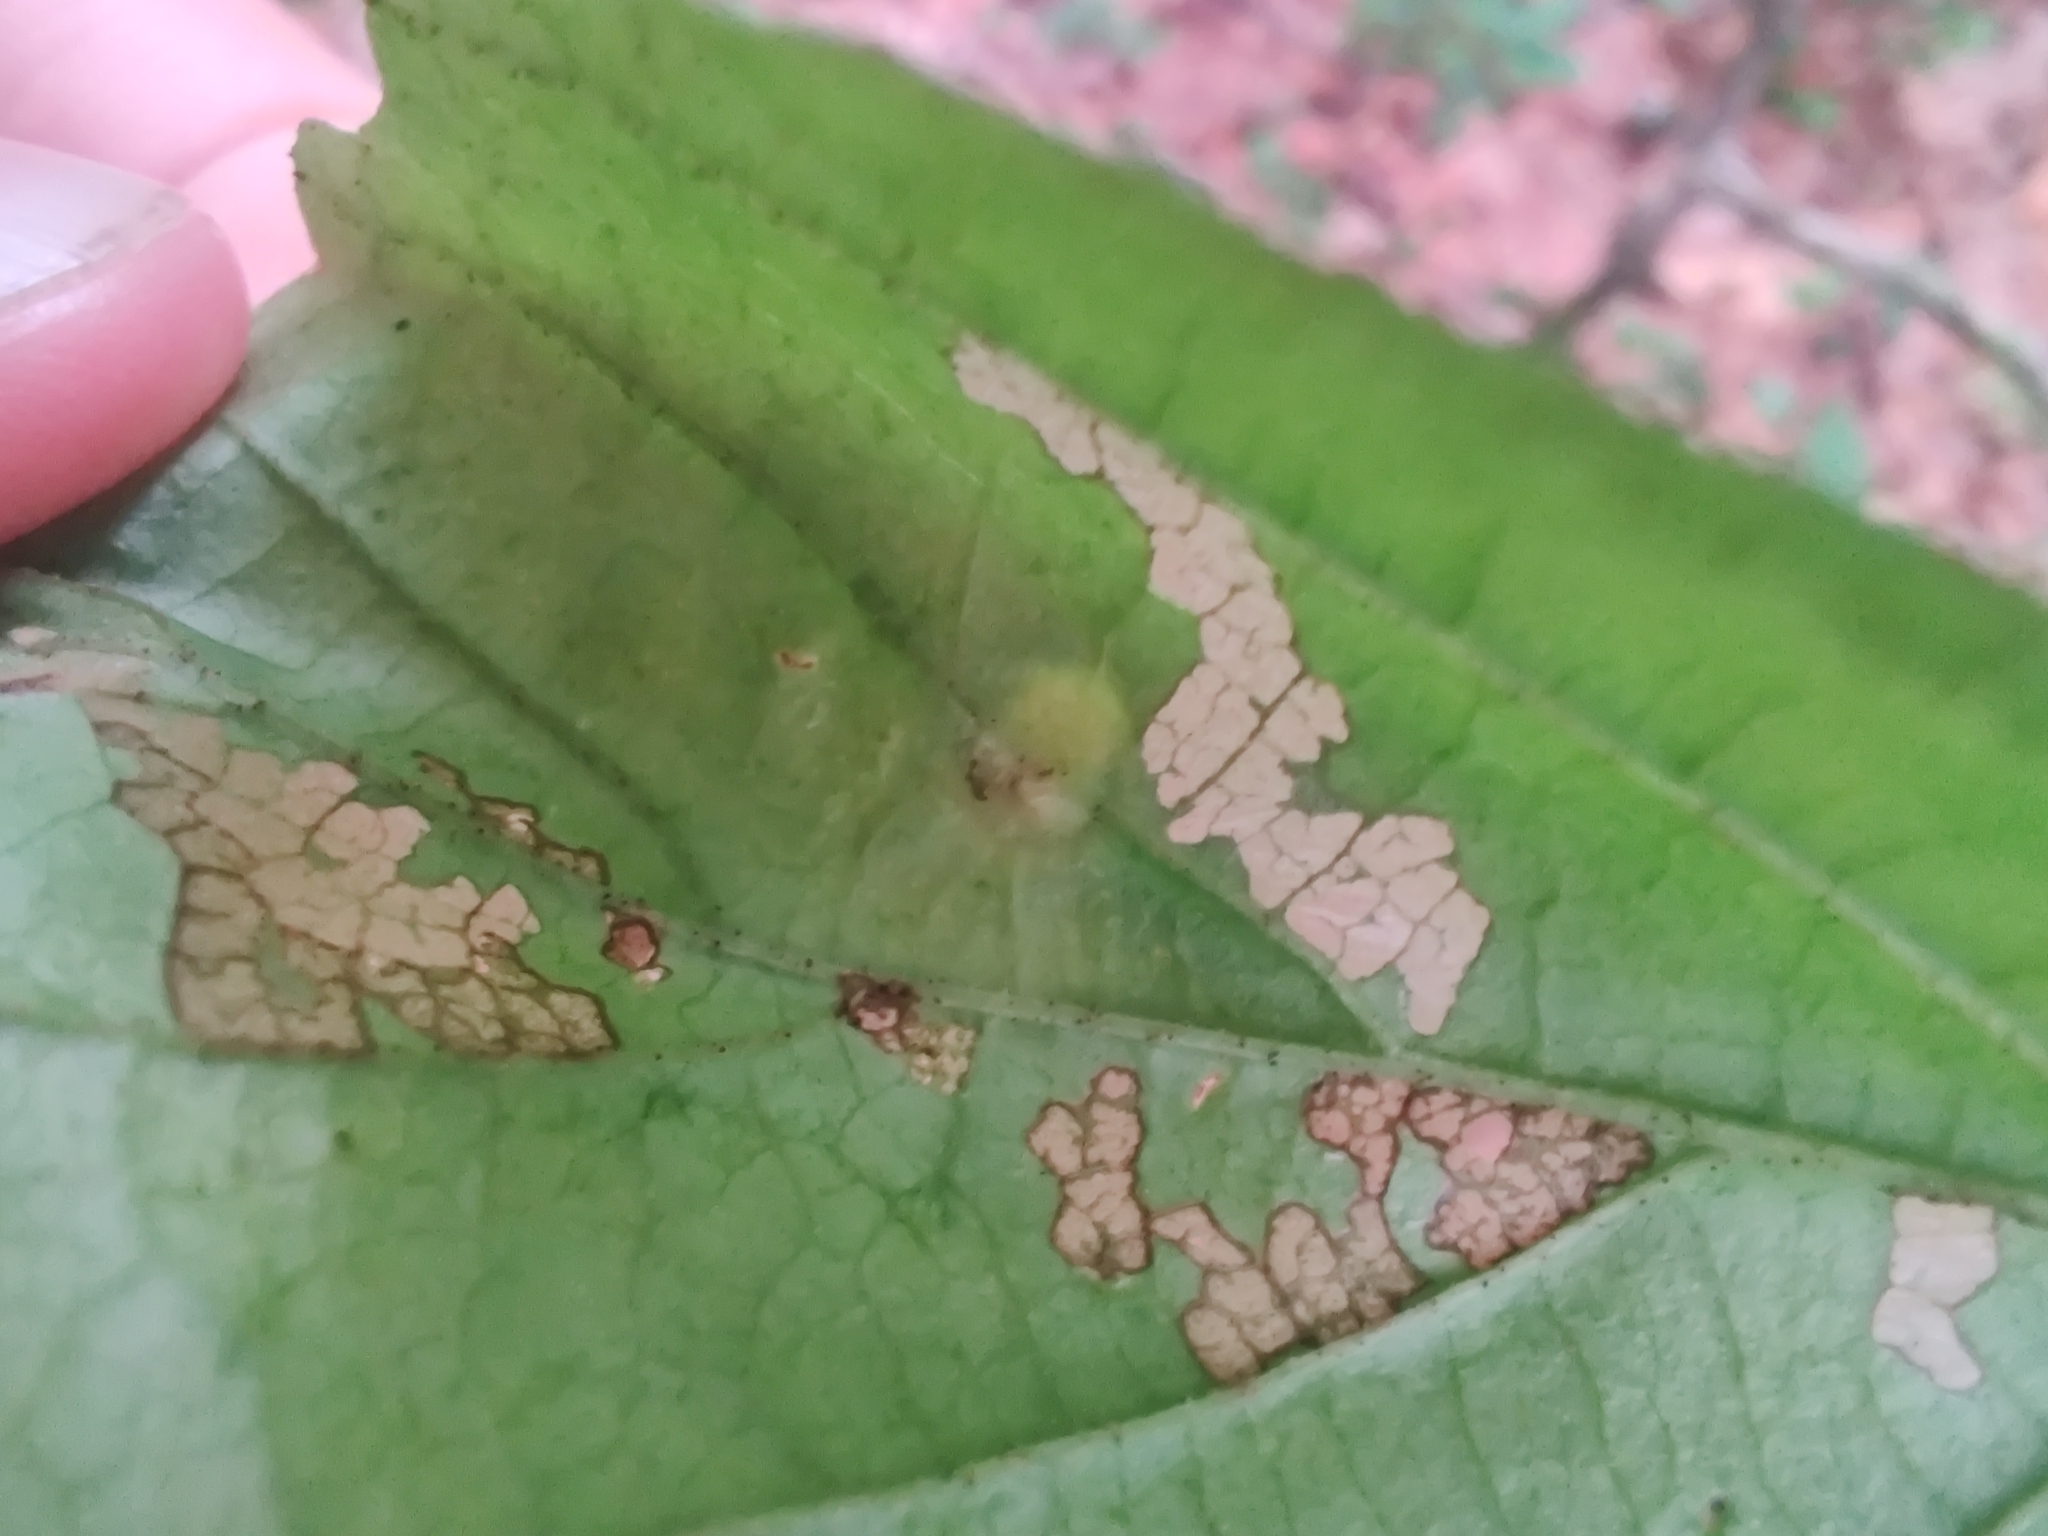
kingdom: Animalia
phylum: Arthropoda
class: Insecta
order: Hemiptera
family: Aphididae
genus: Hormaphis
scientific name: Hormaphis hamamelidis
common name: Witch-hazel cone gall aphid
